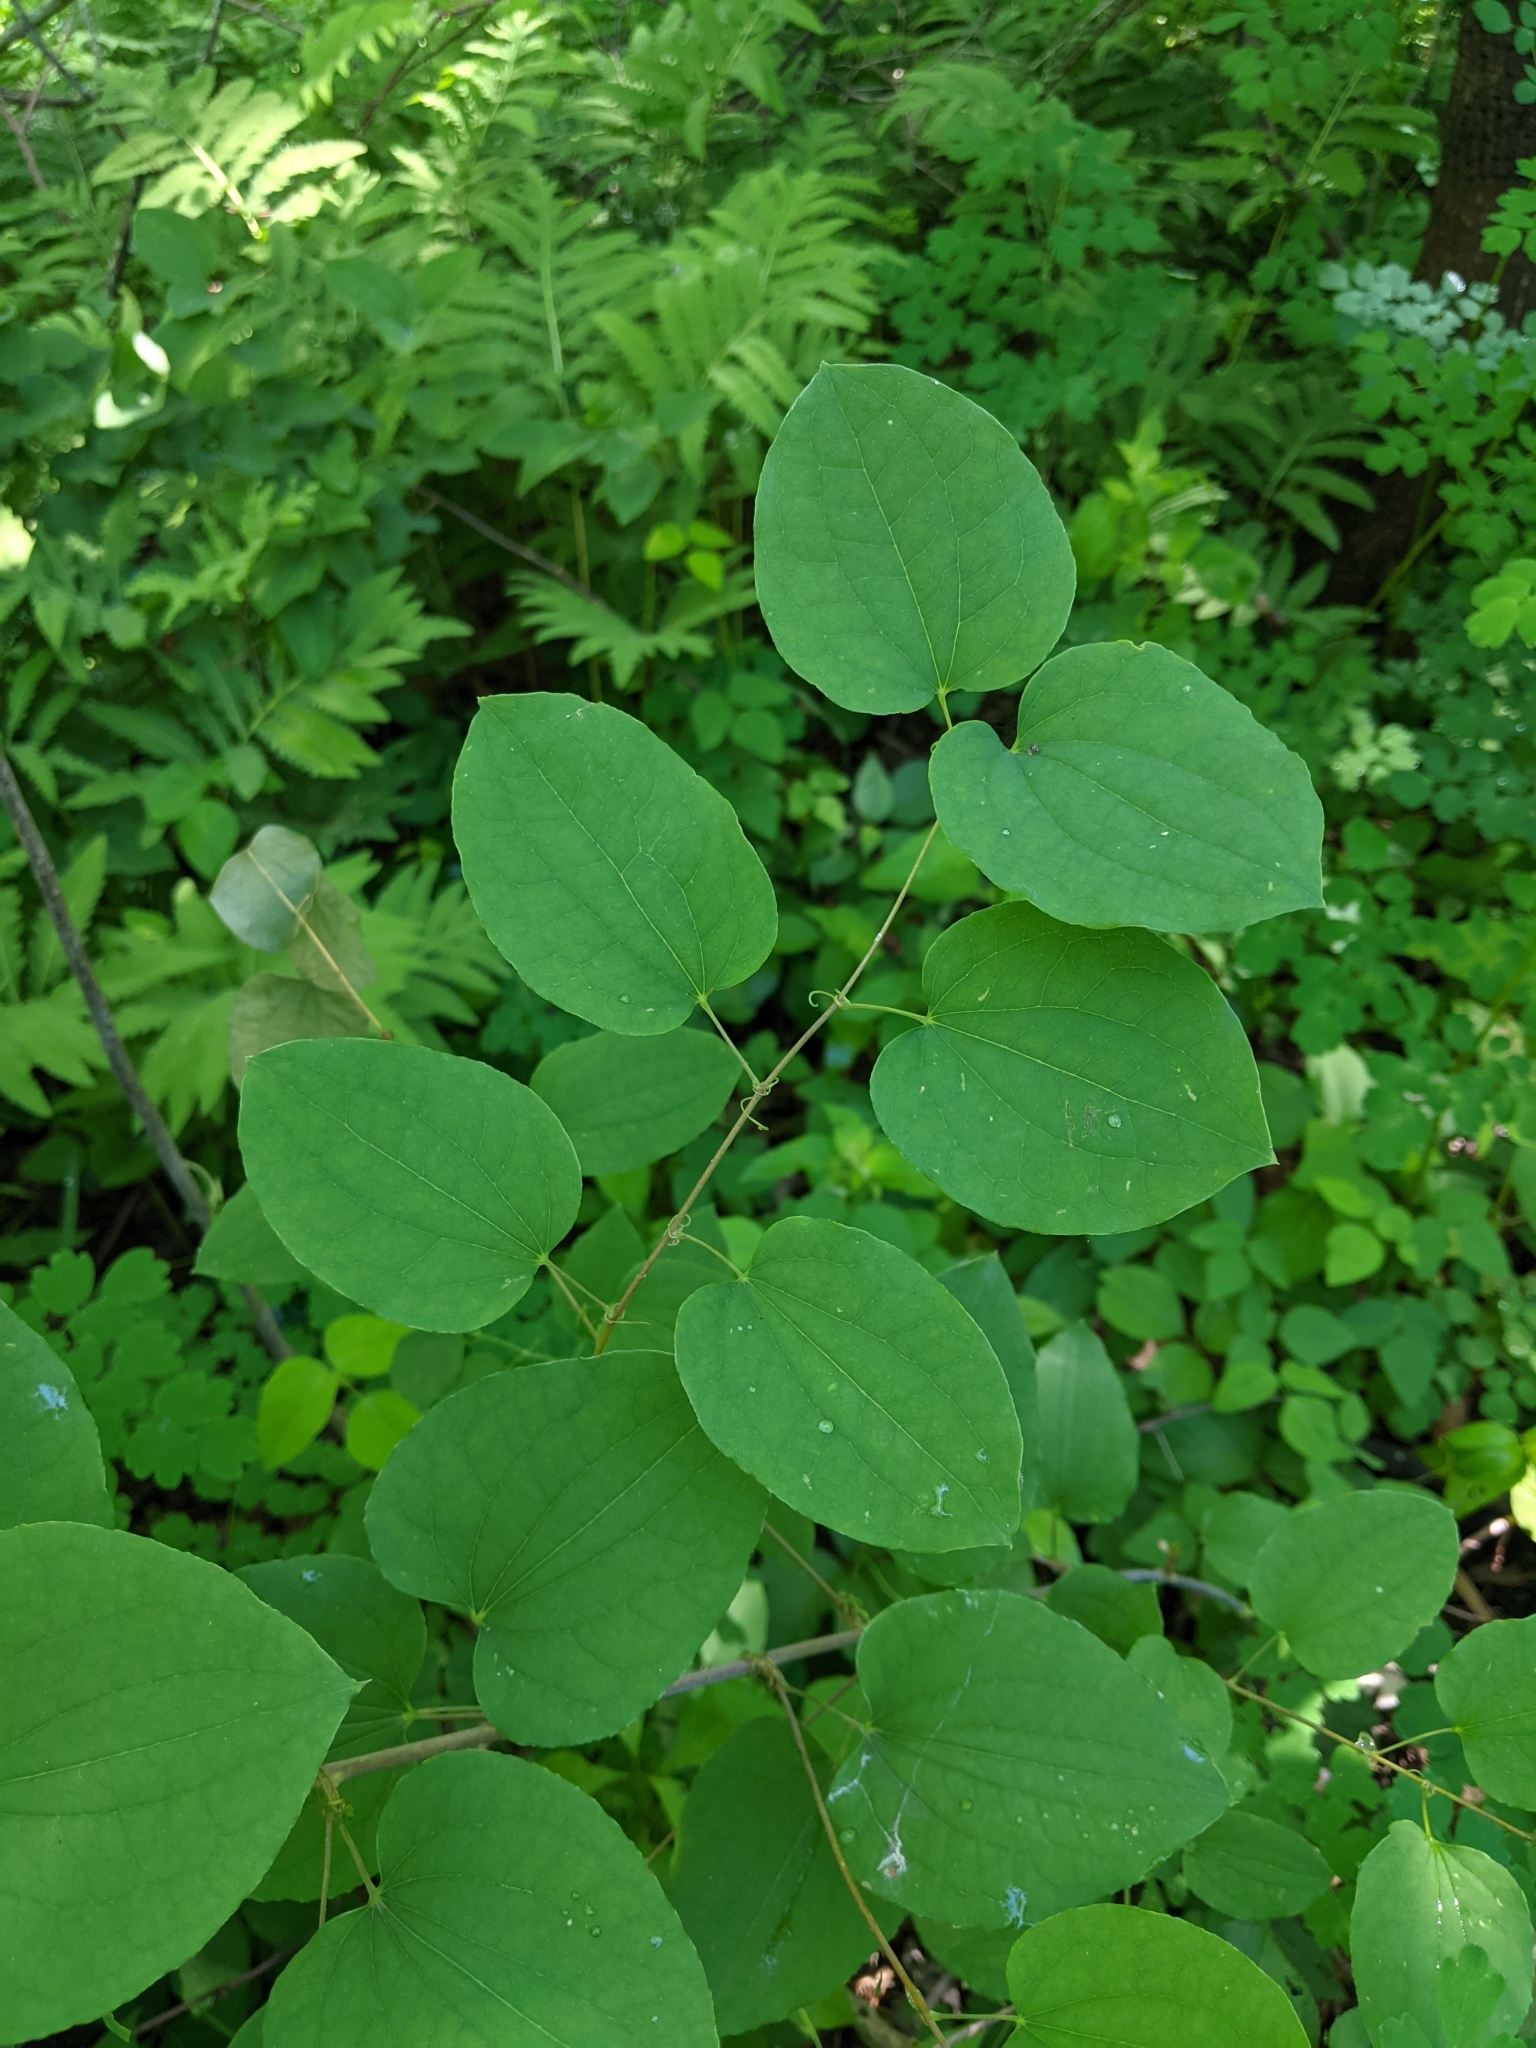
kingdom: Plantae
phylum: Tracheophyta
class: Liliopsida
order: Liliales
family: Smilacaceae
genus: Smilax
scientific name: Smilax herbacea
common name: Jacob's-ladder
